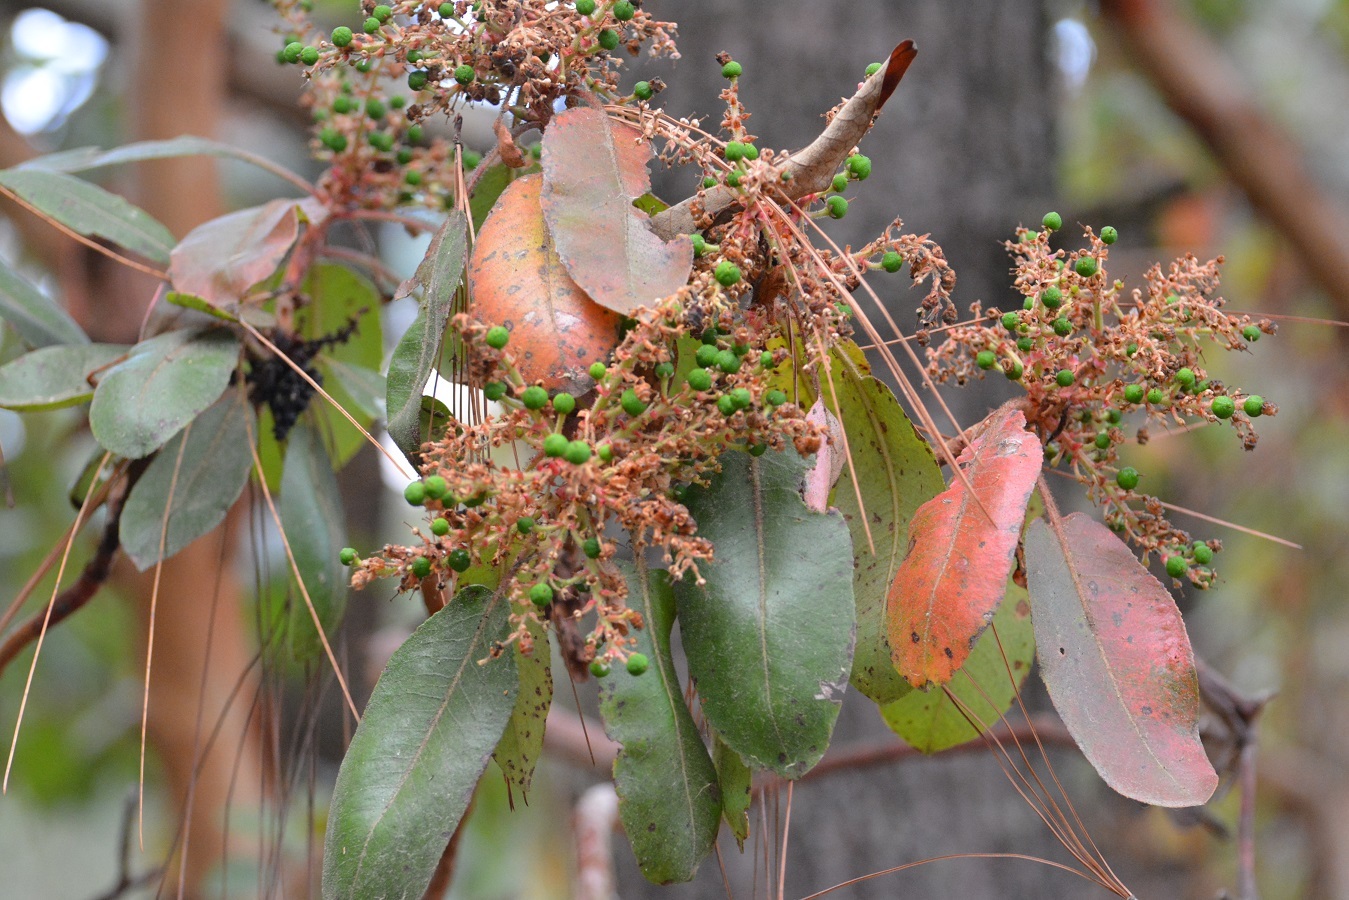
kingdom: Plantae
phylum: Tracheophyta
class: Magnoliopsida
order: Ericales
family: Ericaceae
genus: Arbutus
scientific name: Arbutus xalapensis
